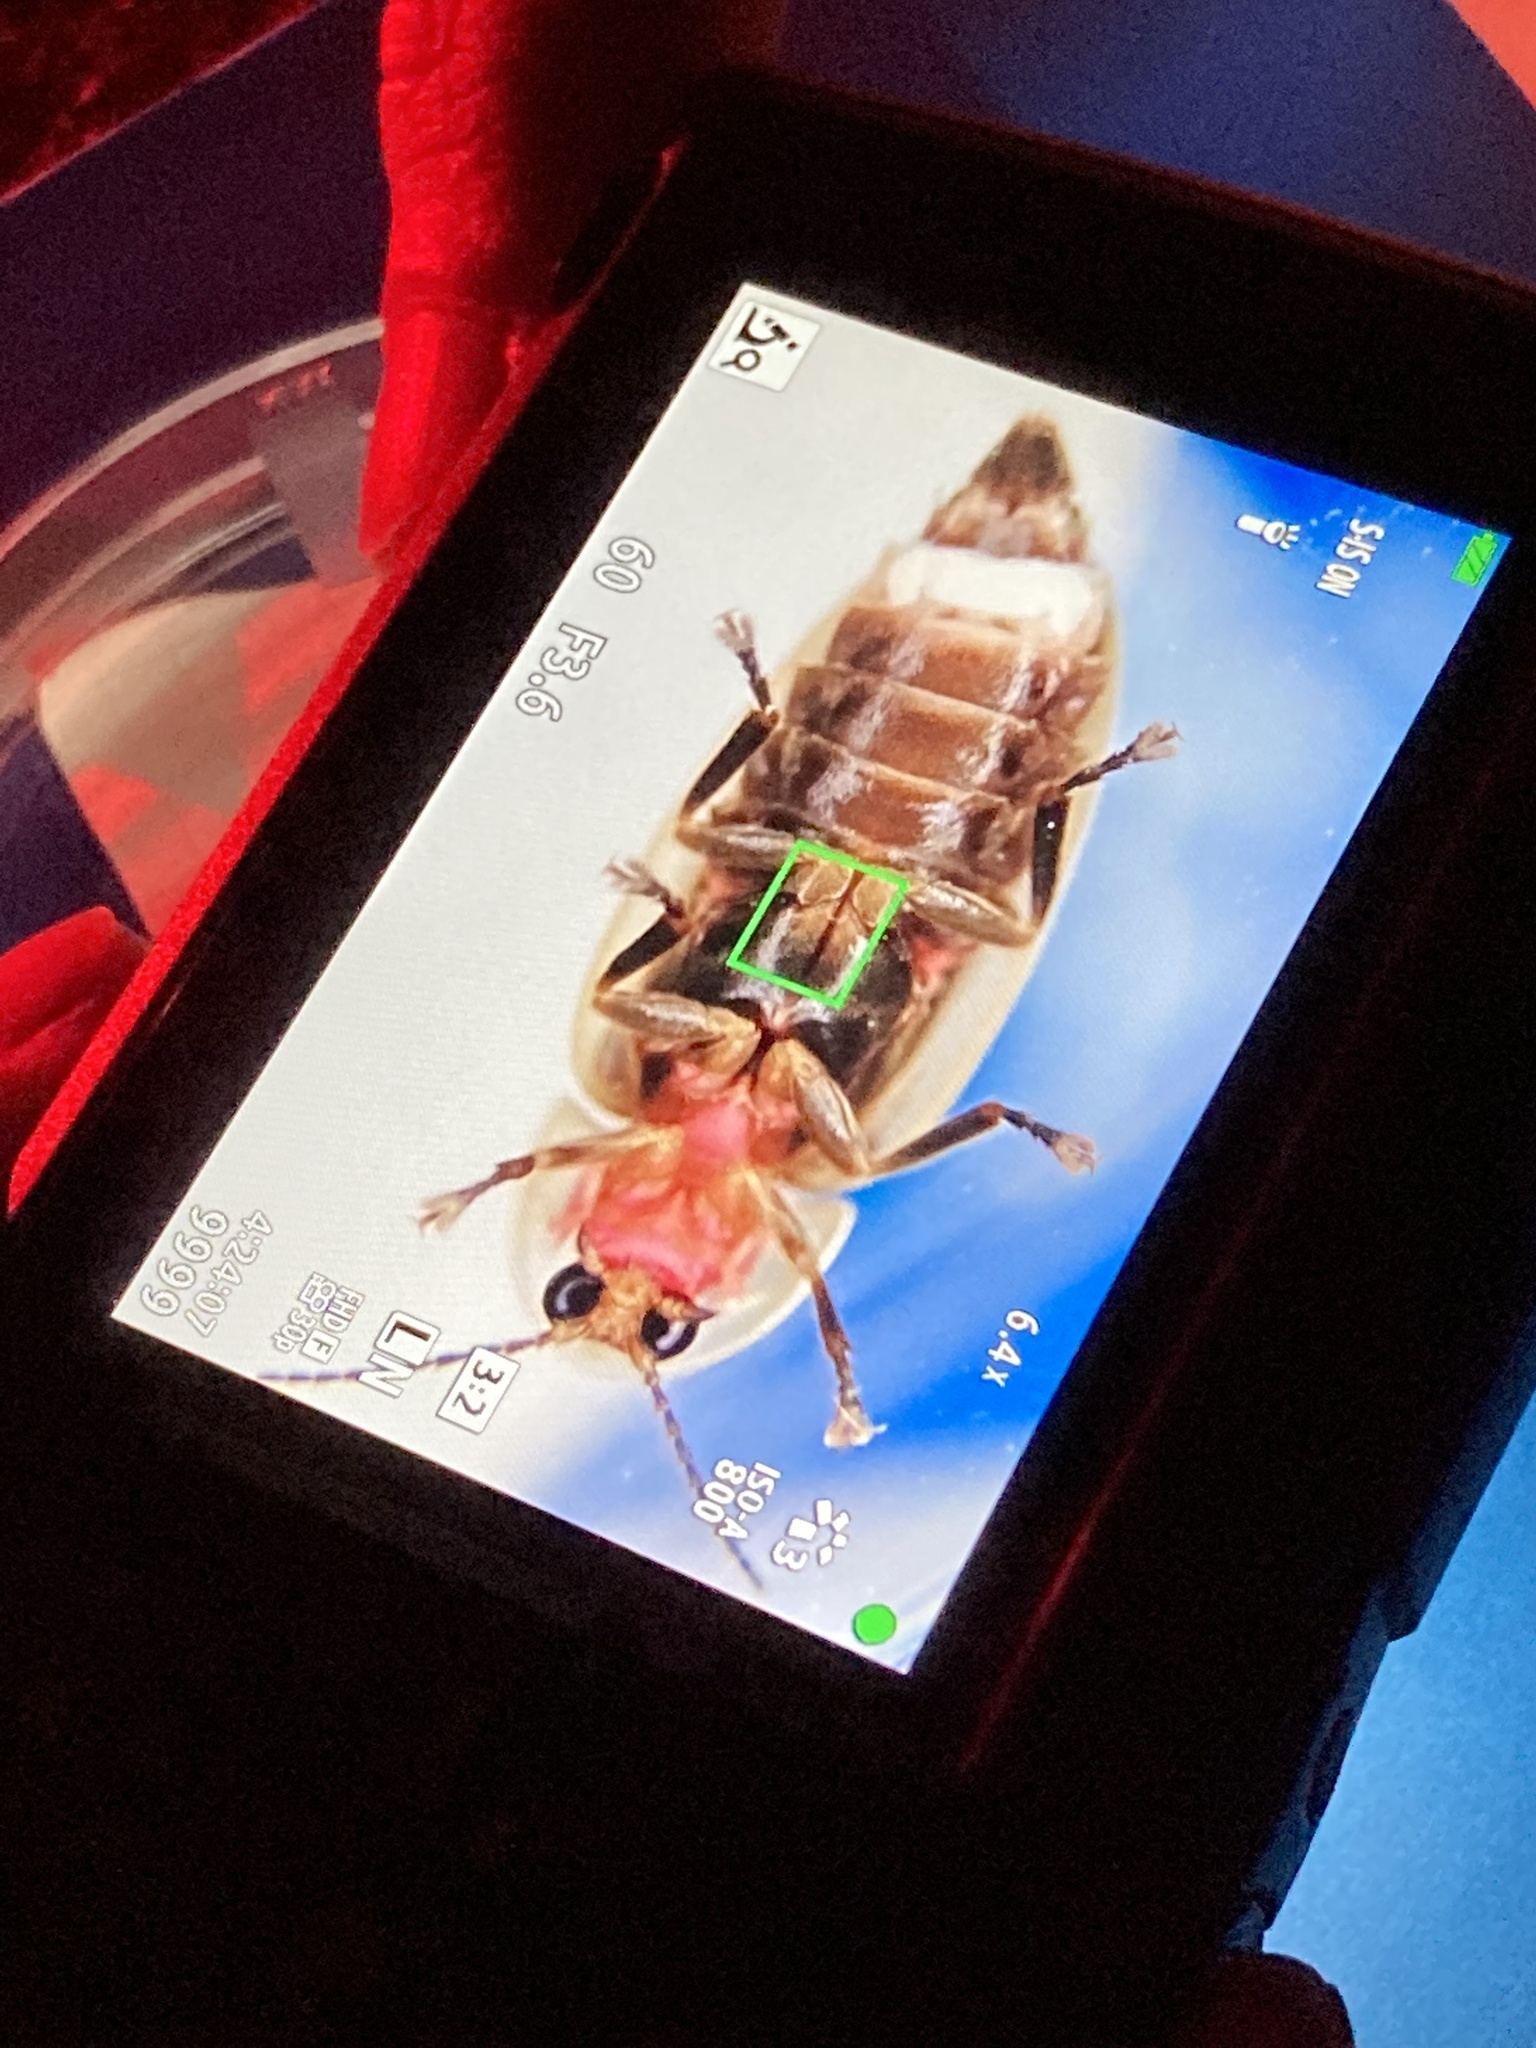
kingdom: Animalia
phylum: Arthropoda
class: Insecta
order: Coleoptera
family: Lampyridae
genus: Micronaspis
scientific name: Micronaspis floridana
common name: Florida intertidal firefly
